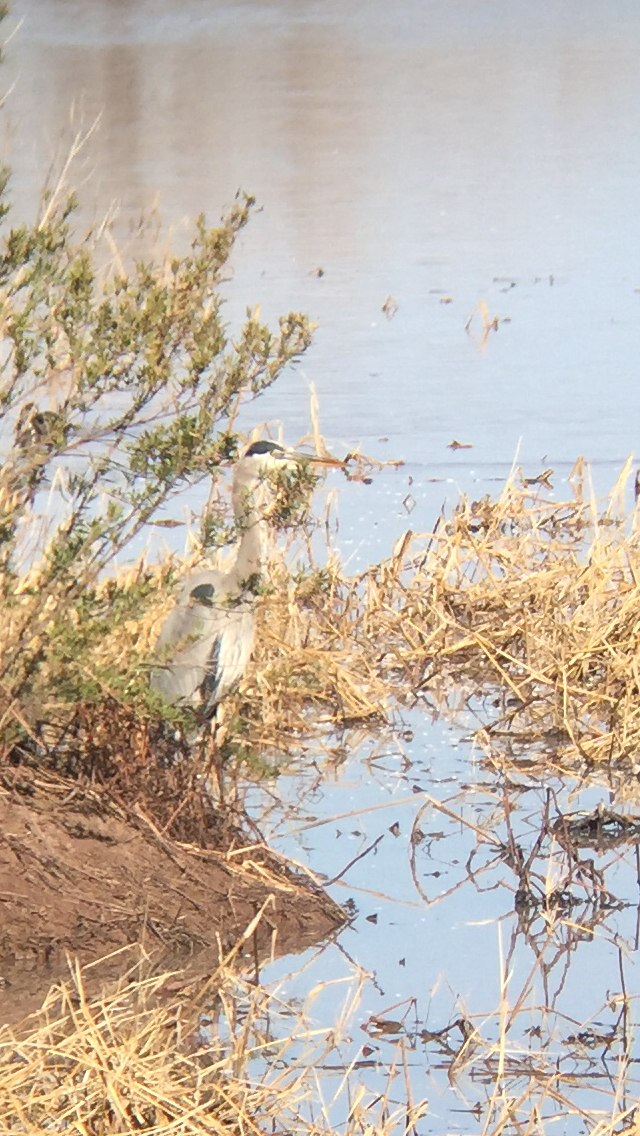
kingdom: Animalia
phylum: Chordata
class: Aves
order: Pelecaniformes
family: Ardeidae
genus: Ardea
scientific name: Ardea herodias
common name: Great blue heron
